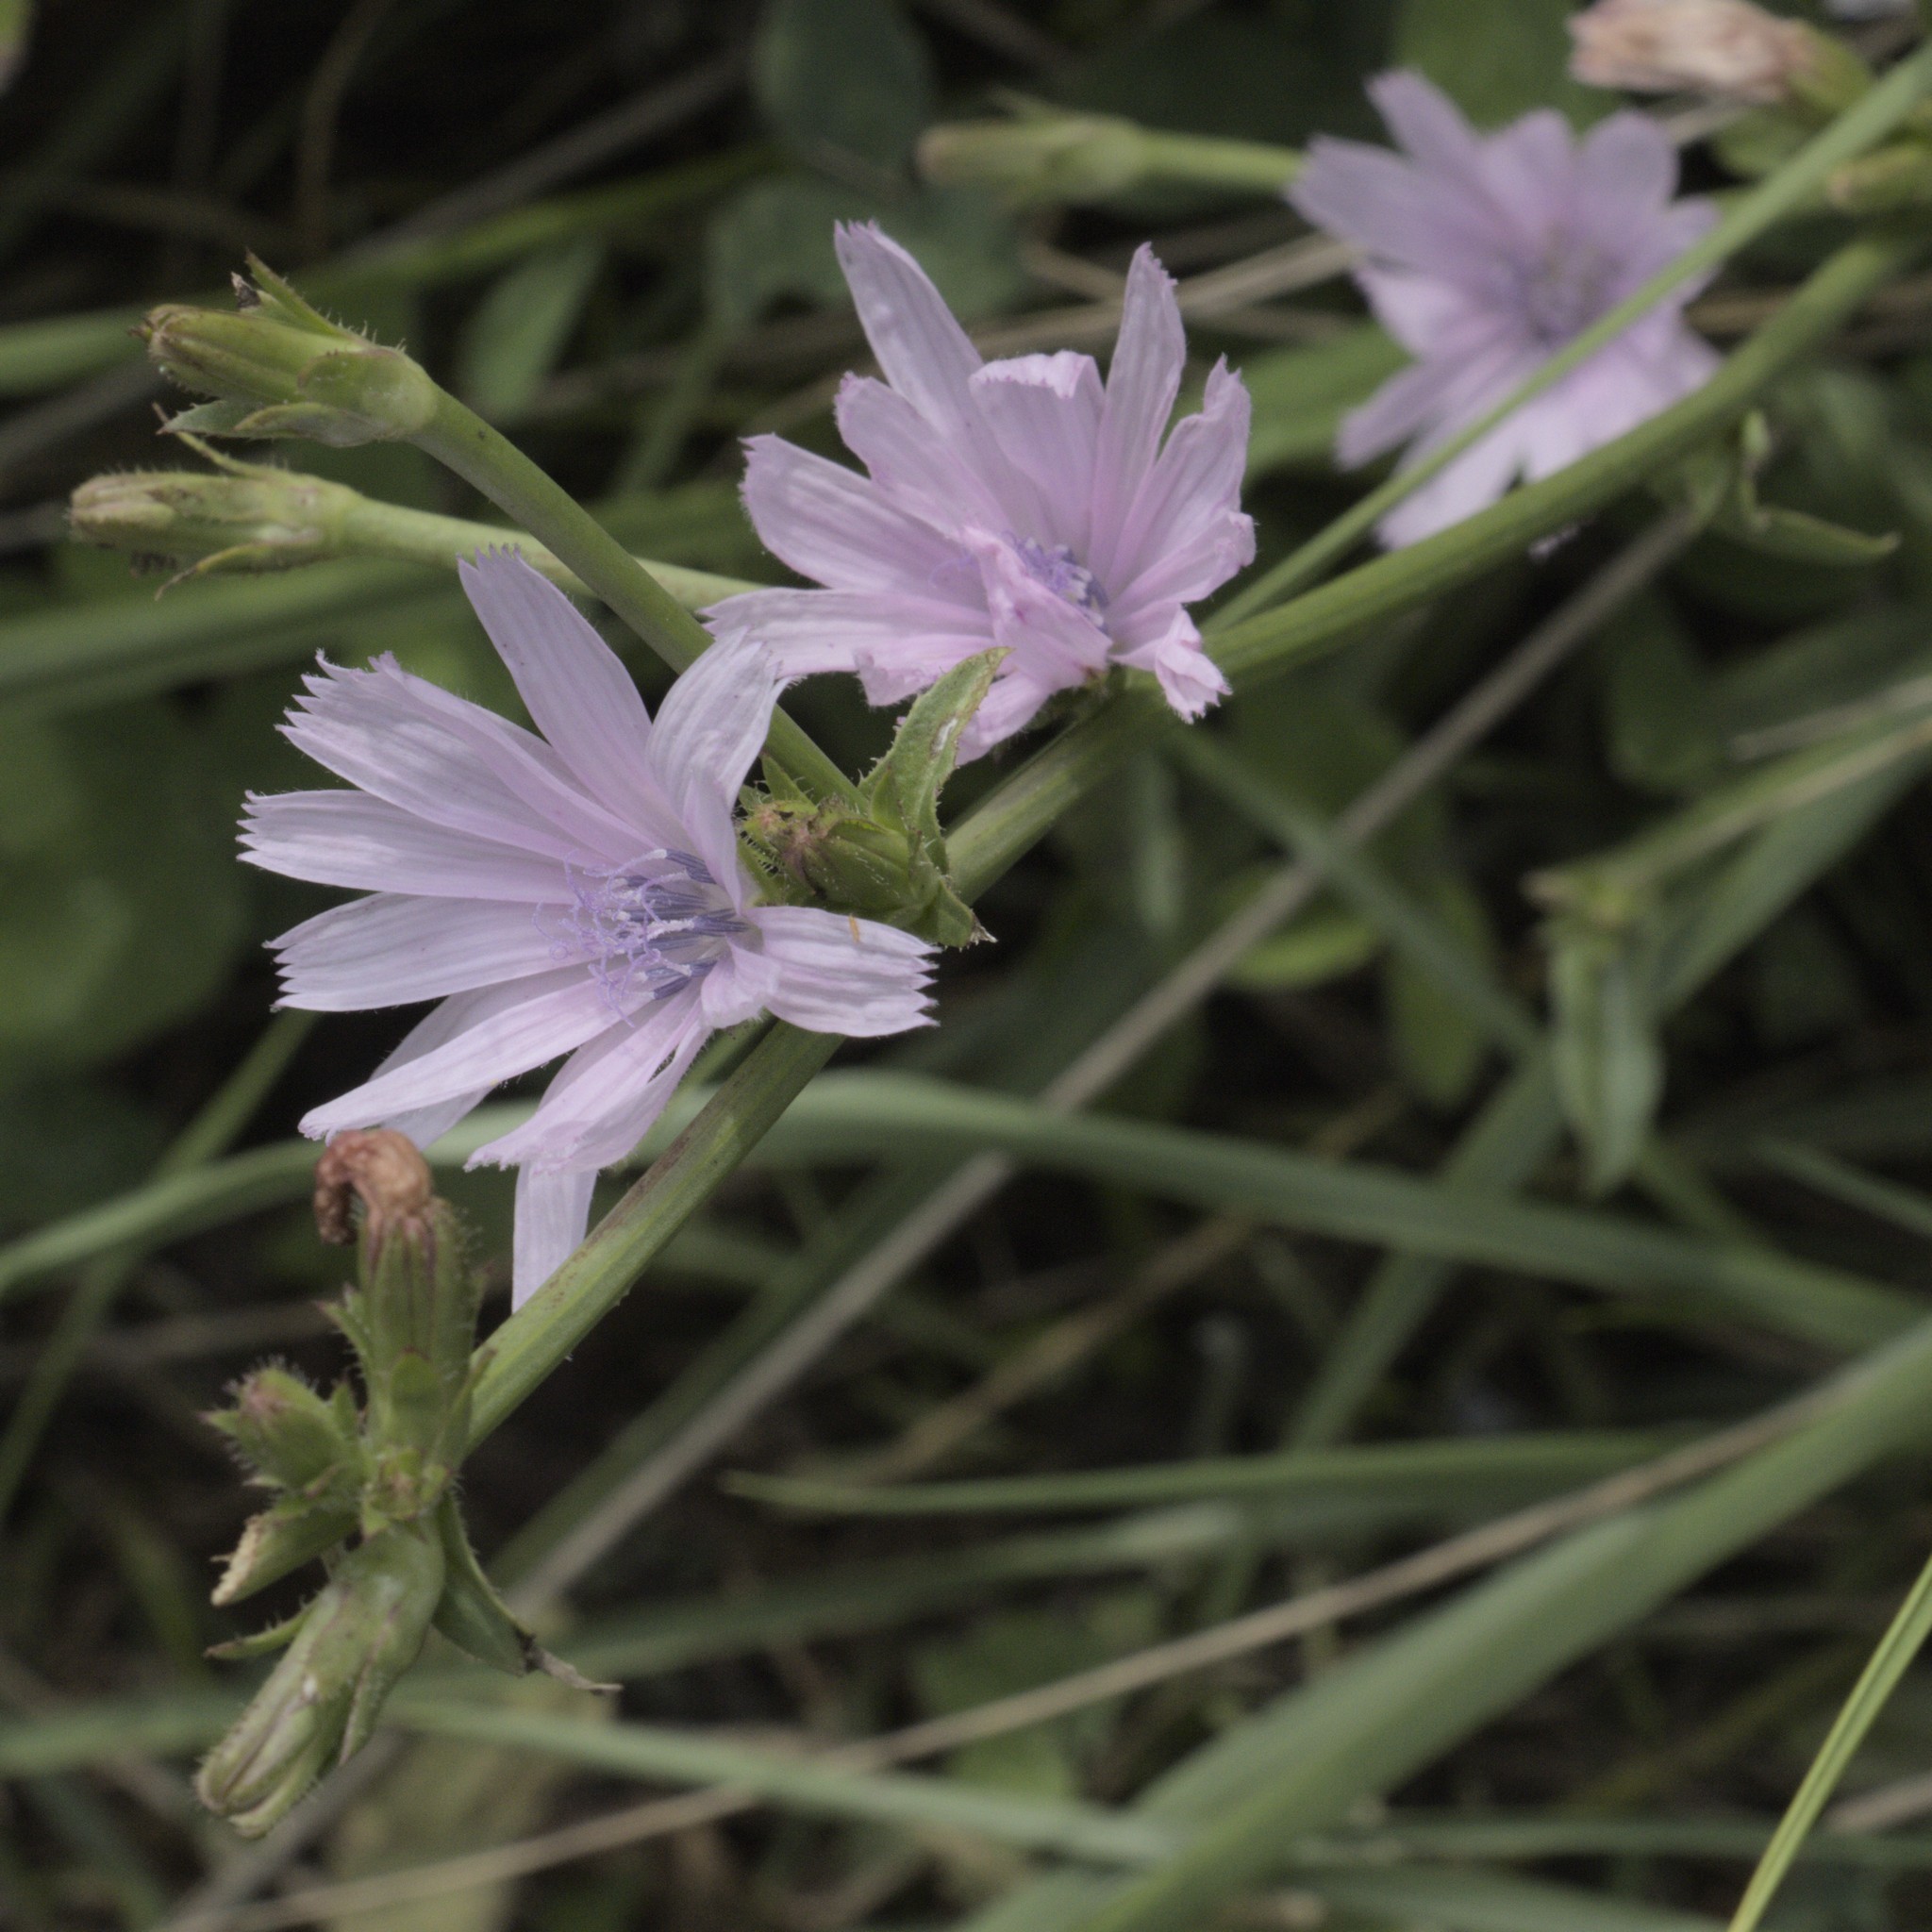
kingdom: Plantae
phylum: Tracheophyta
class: Magnoliopsida
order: Asterales
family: Asteraceae
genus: Cichorium
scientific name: Cichorium intybus
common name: Chicory
